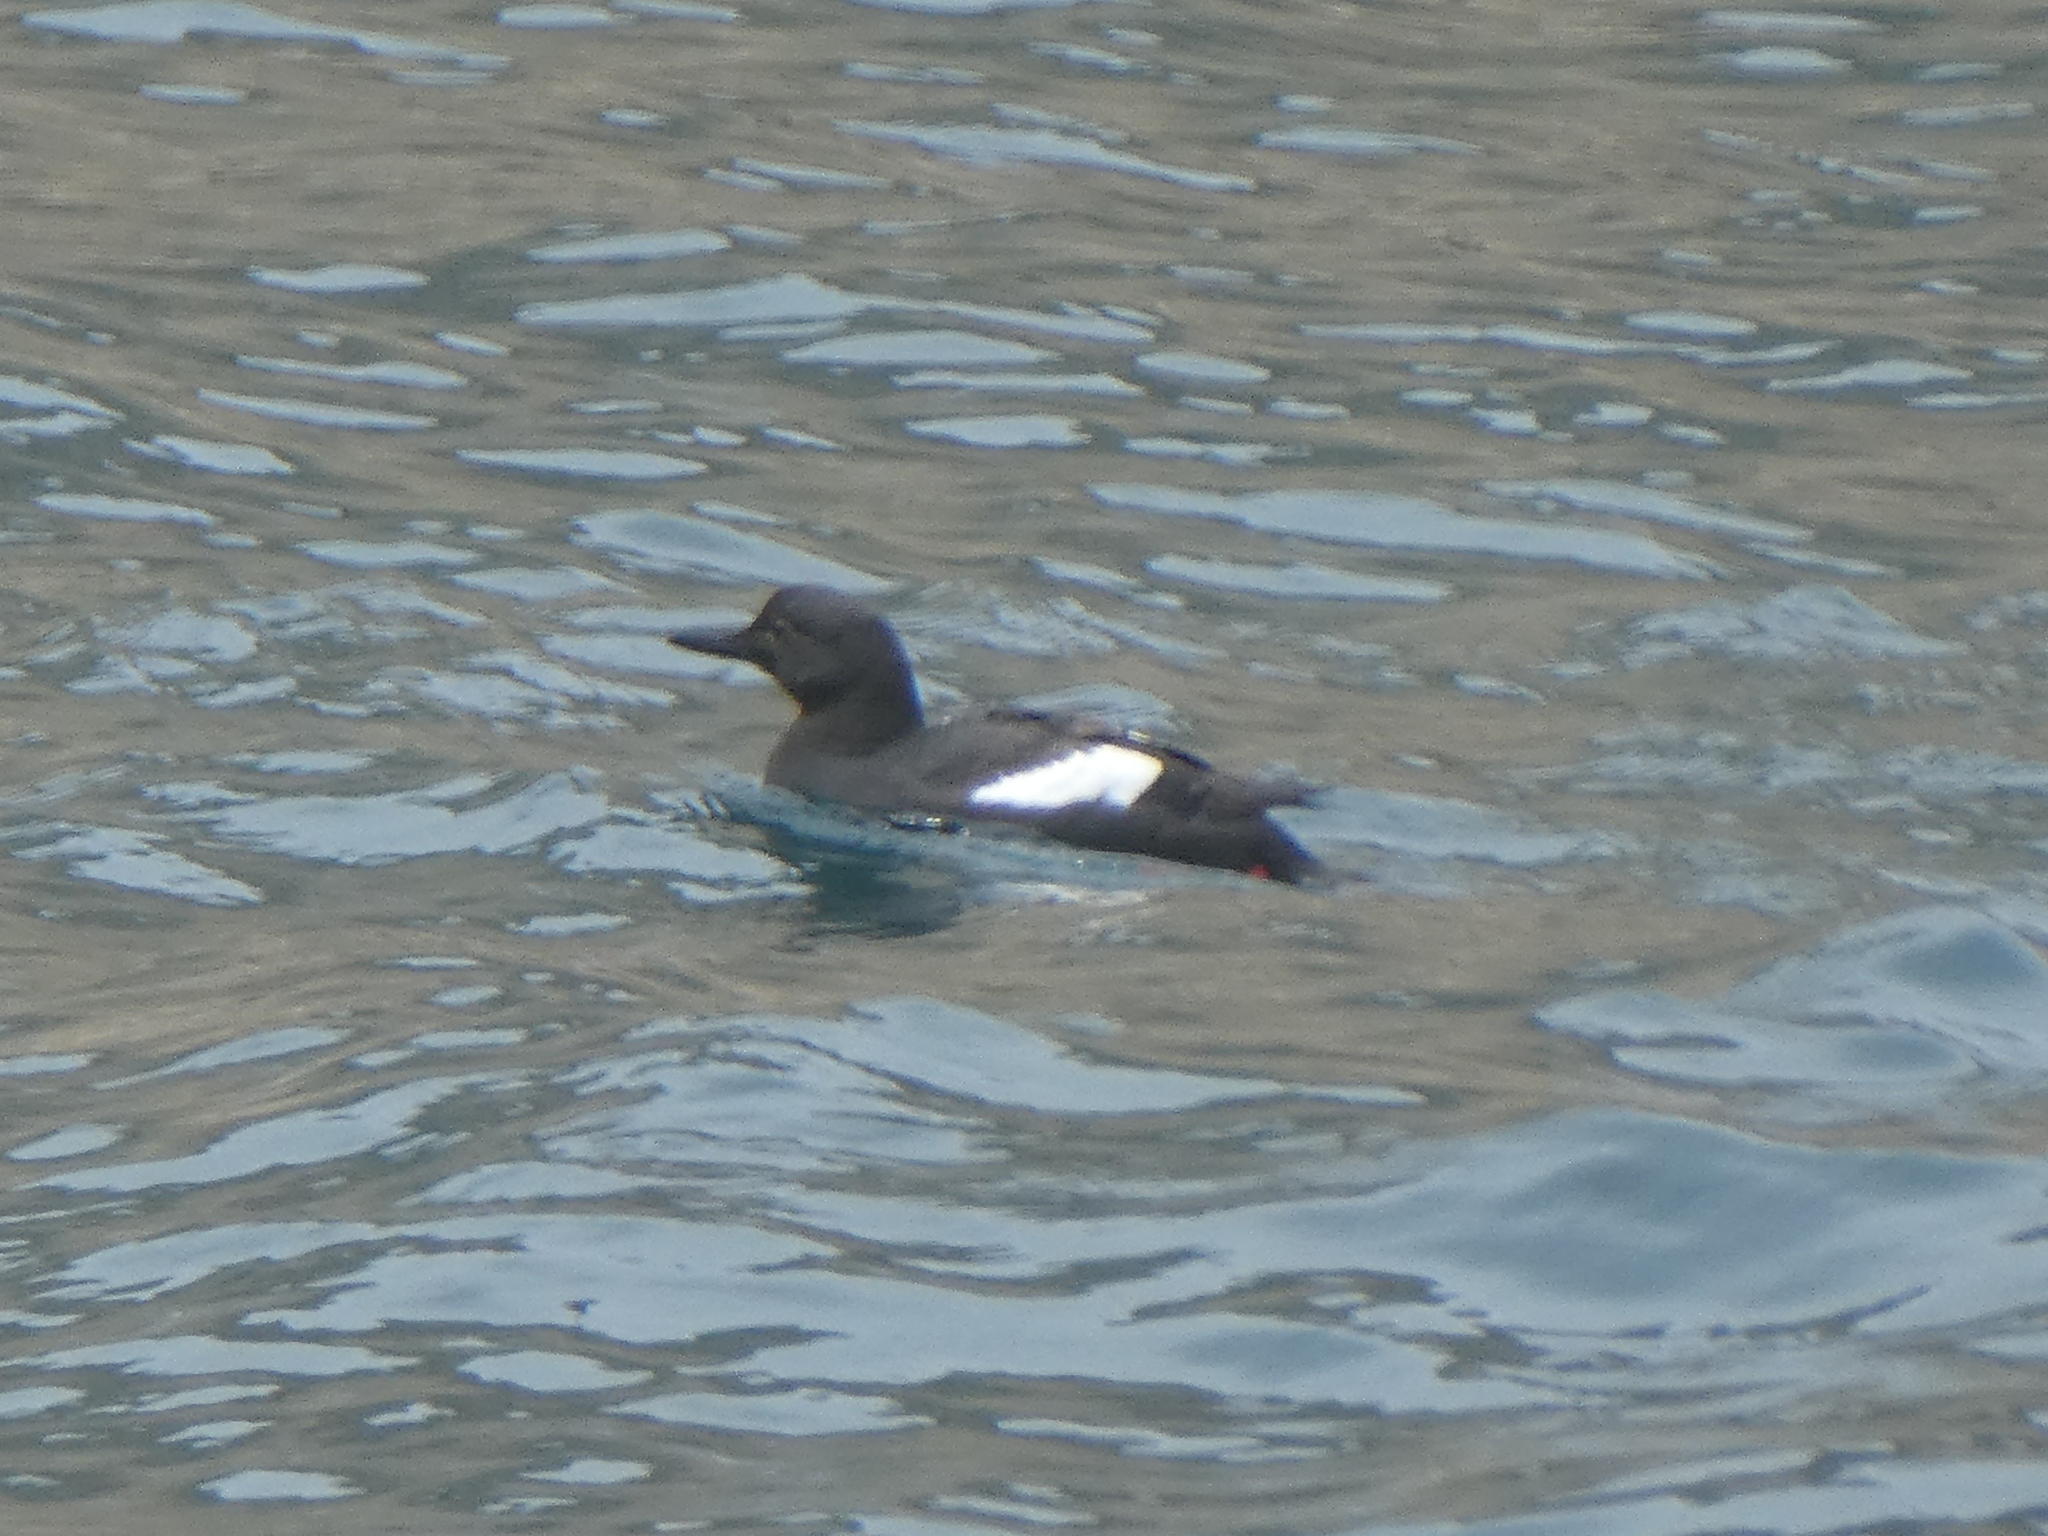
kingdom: Animalia
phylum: Chordata
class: Aves
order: Charadriiformes
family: Alcidae
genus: Cepphus
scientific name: Cepphus columba
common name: Pigeon guillemot
